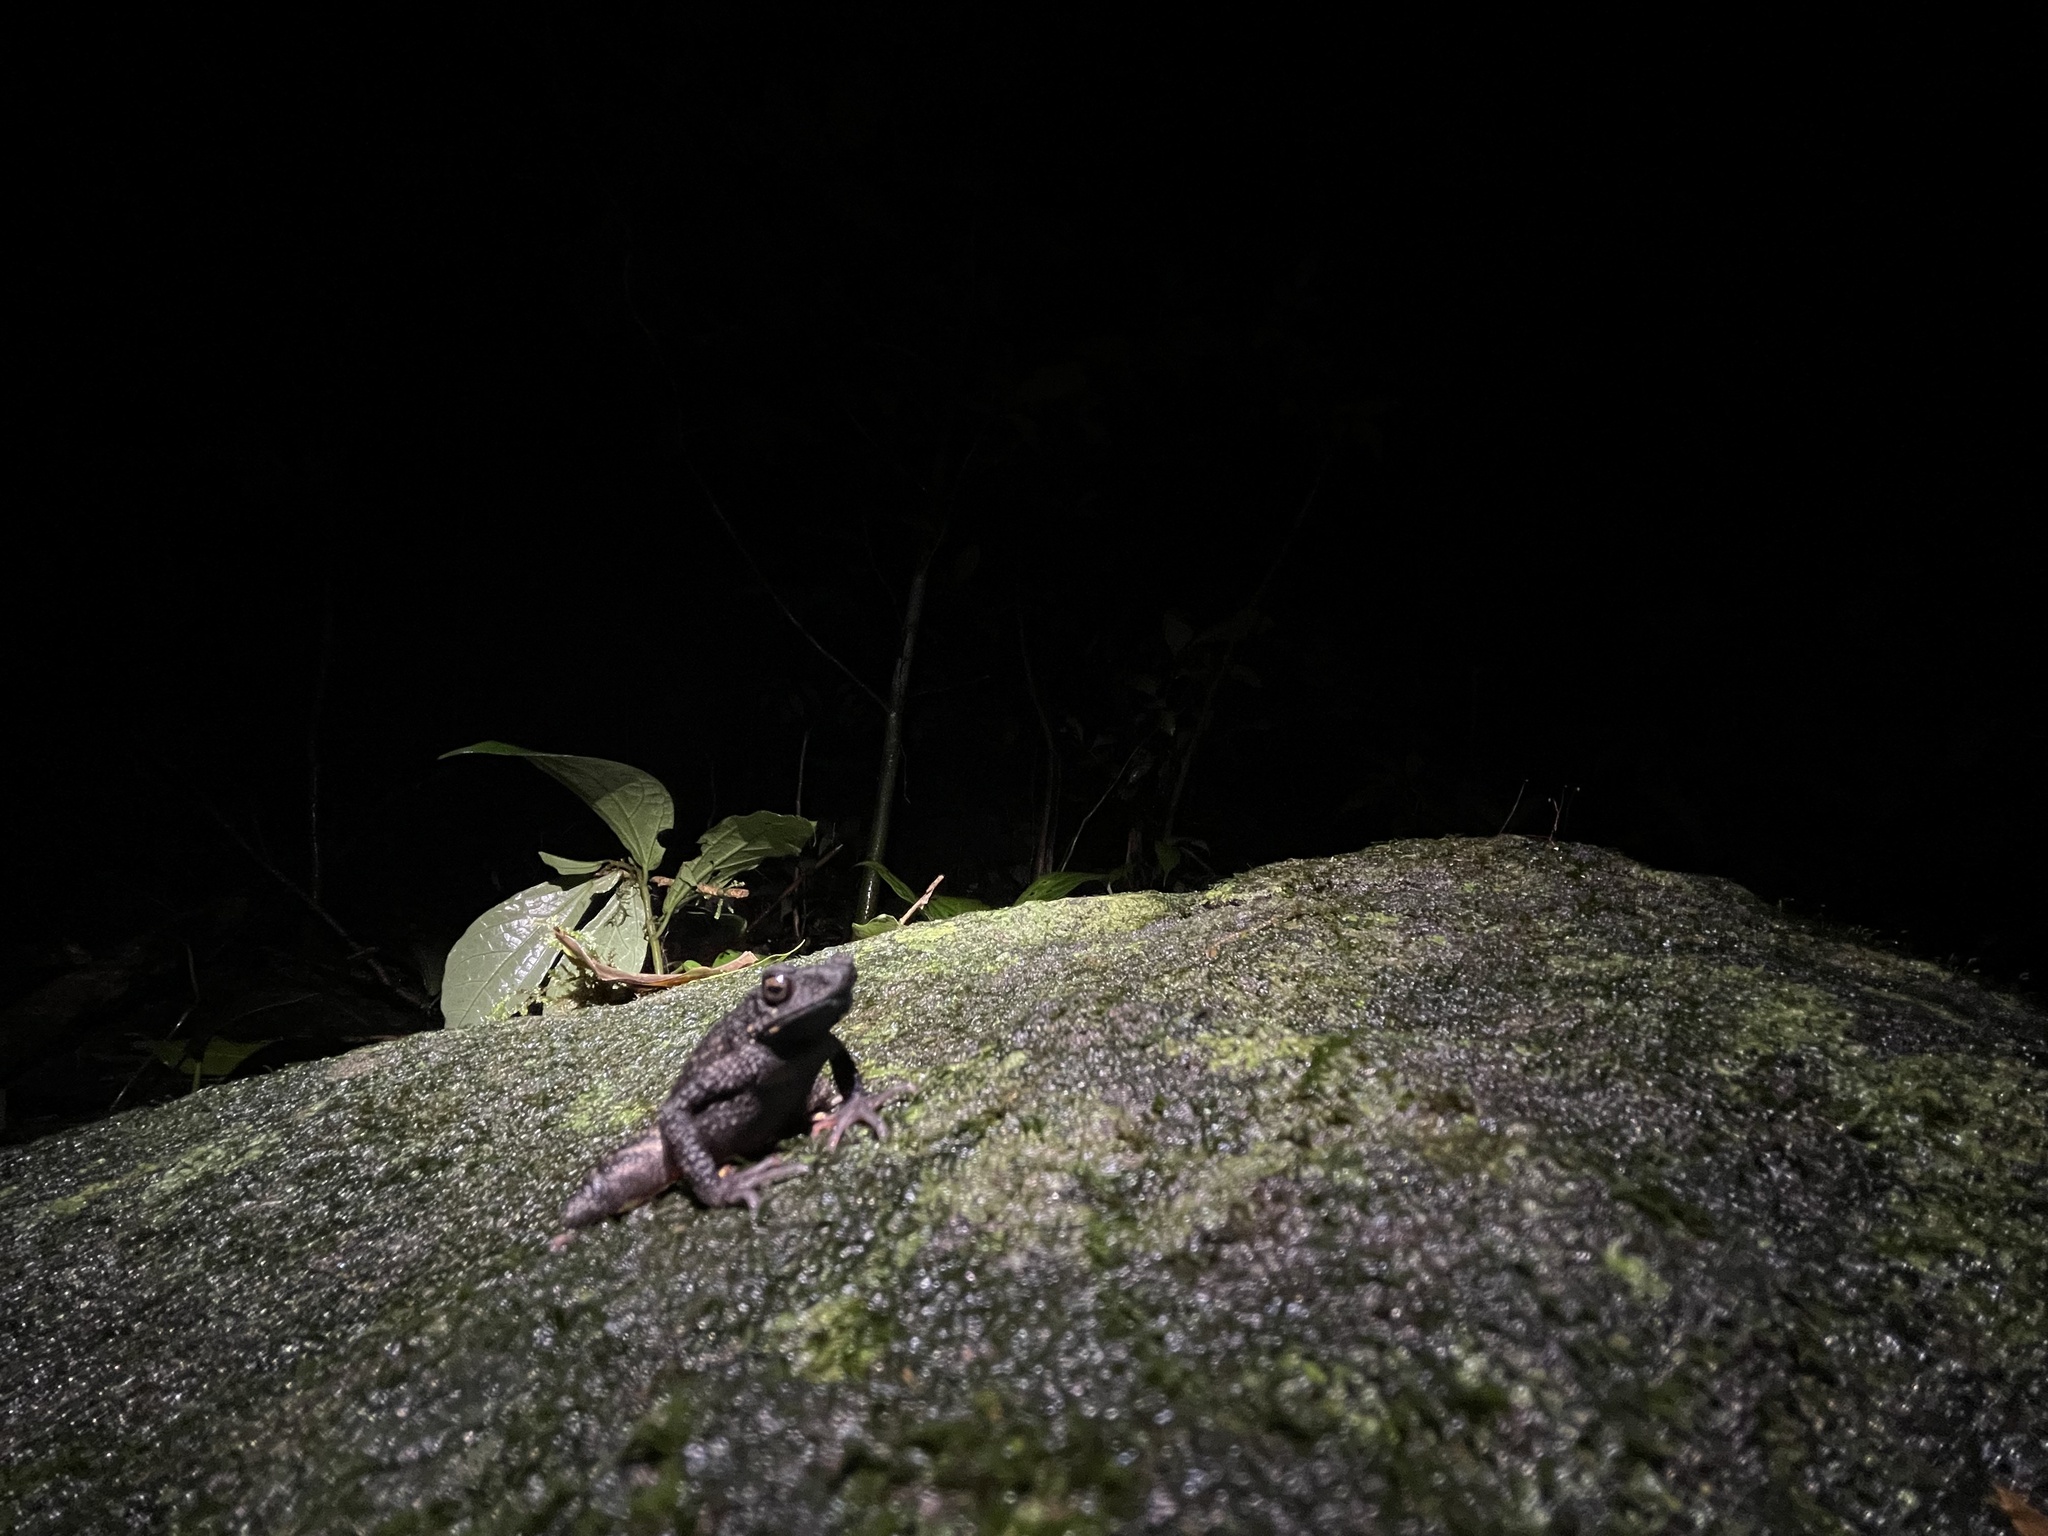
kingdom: Animalia
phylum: Chordata
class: Amphibia
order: Anura
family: Bufonidae
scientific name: Bufonidae
